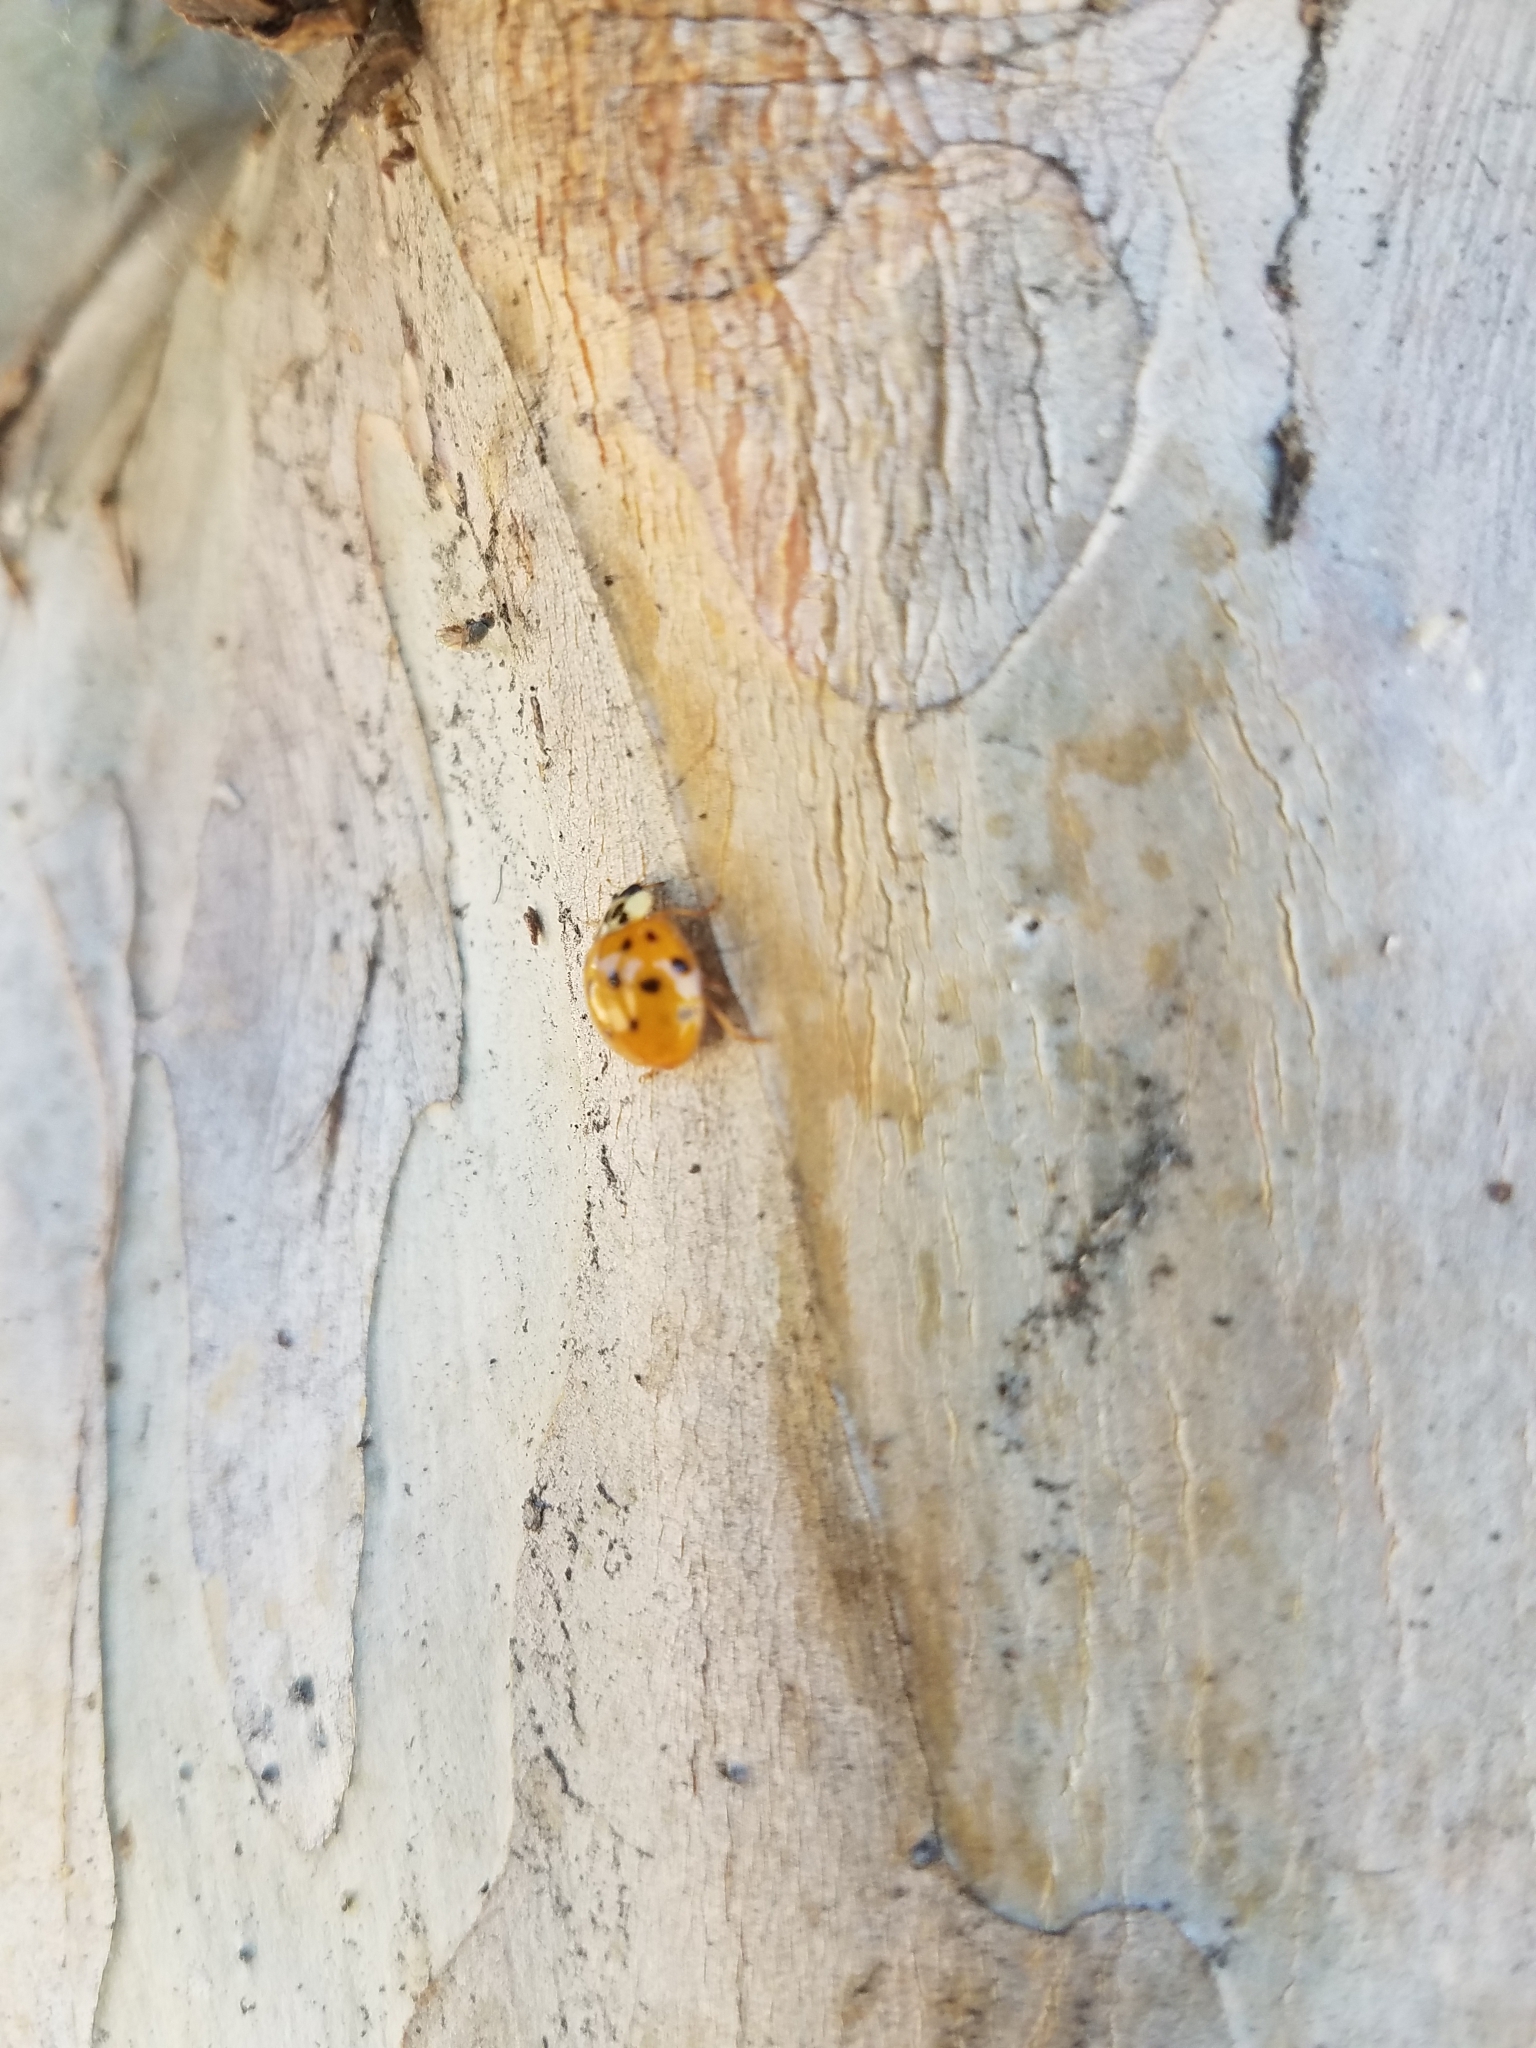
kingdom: Animalia
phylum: Arthropoda
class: Insecta
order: Coleoptera
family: Coccinellidae
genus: Harmonia
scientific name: Harmonia axyridis
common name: Harlequin ladybird
